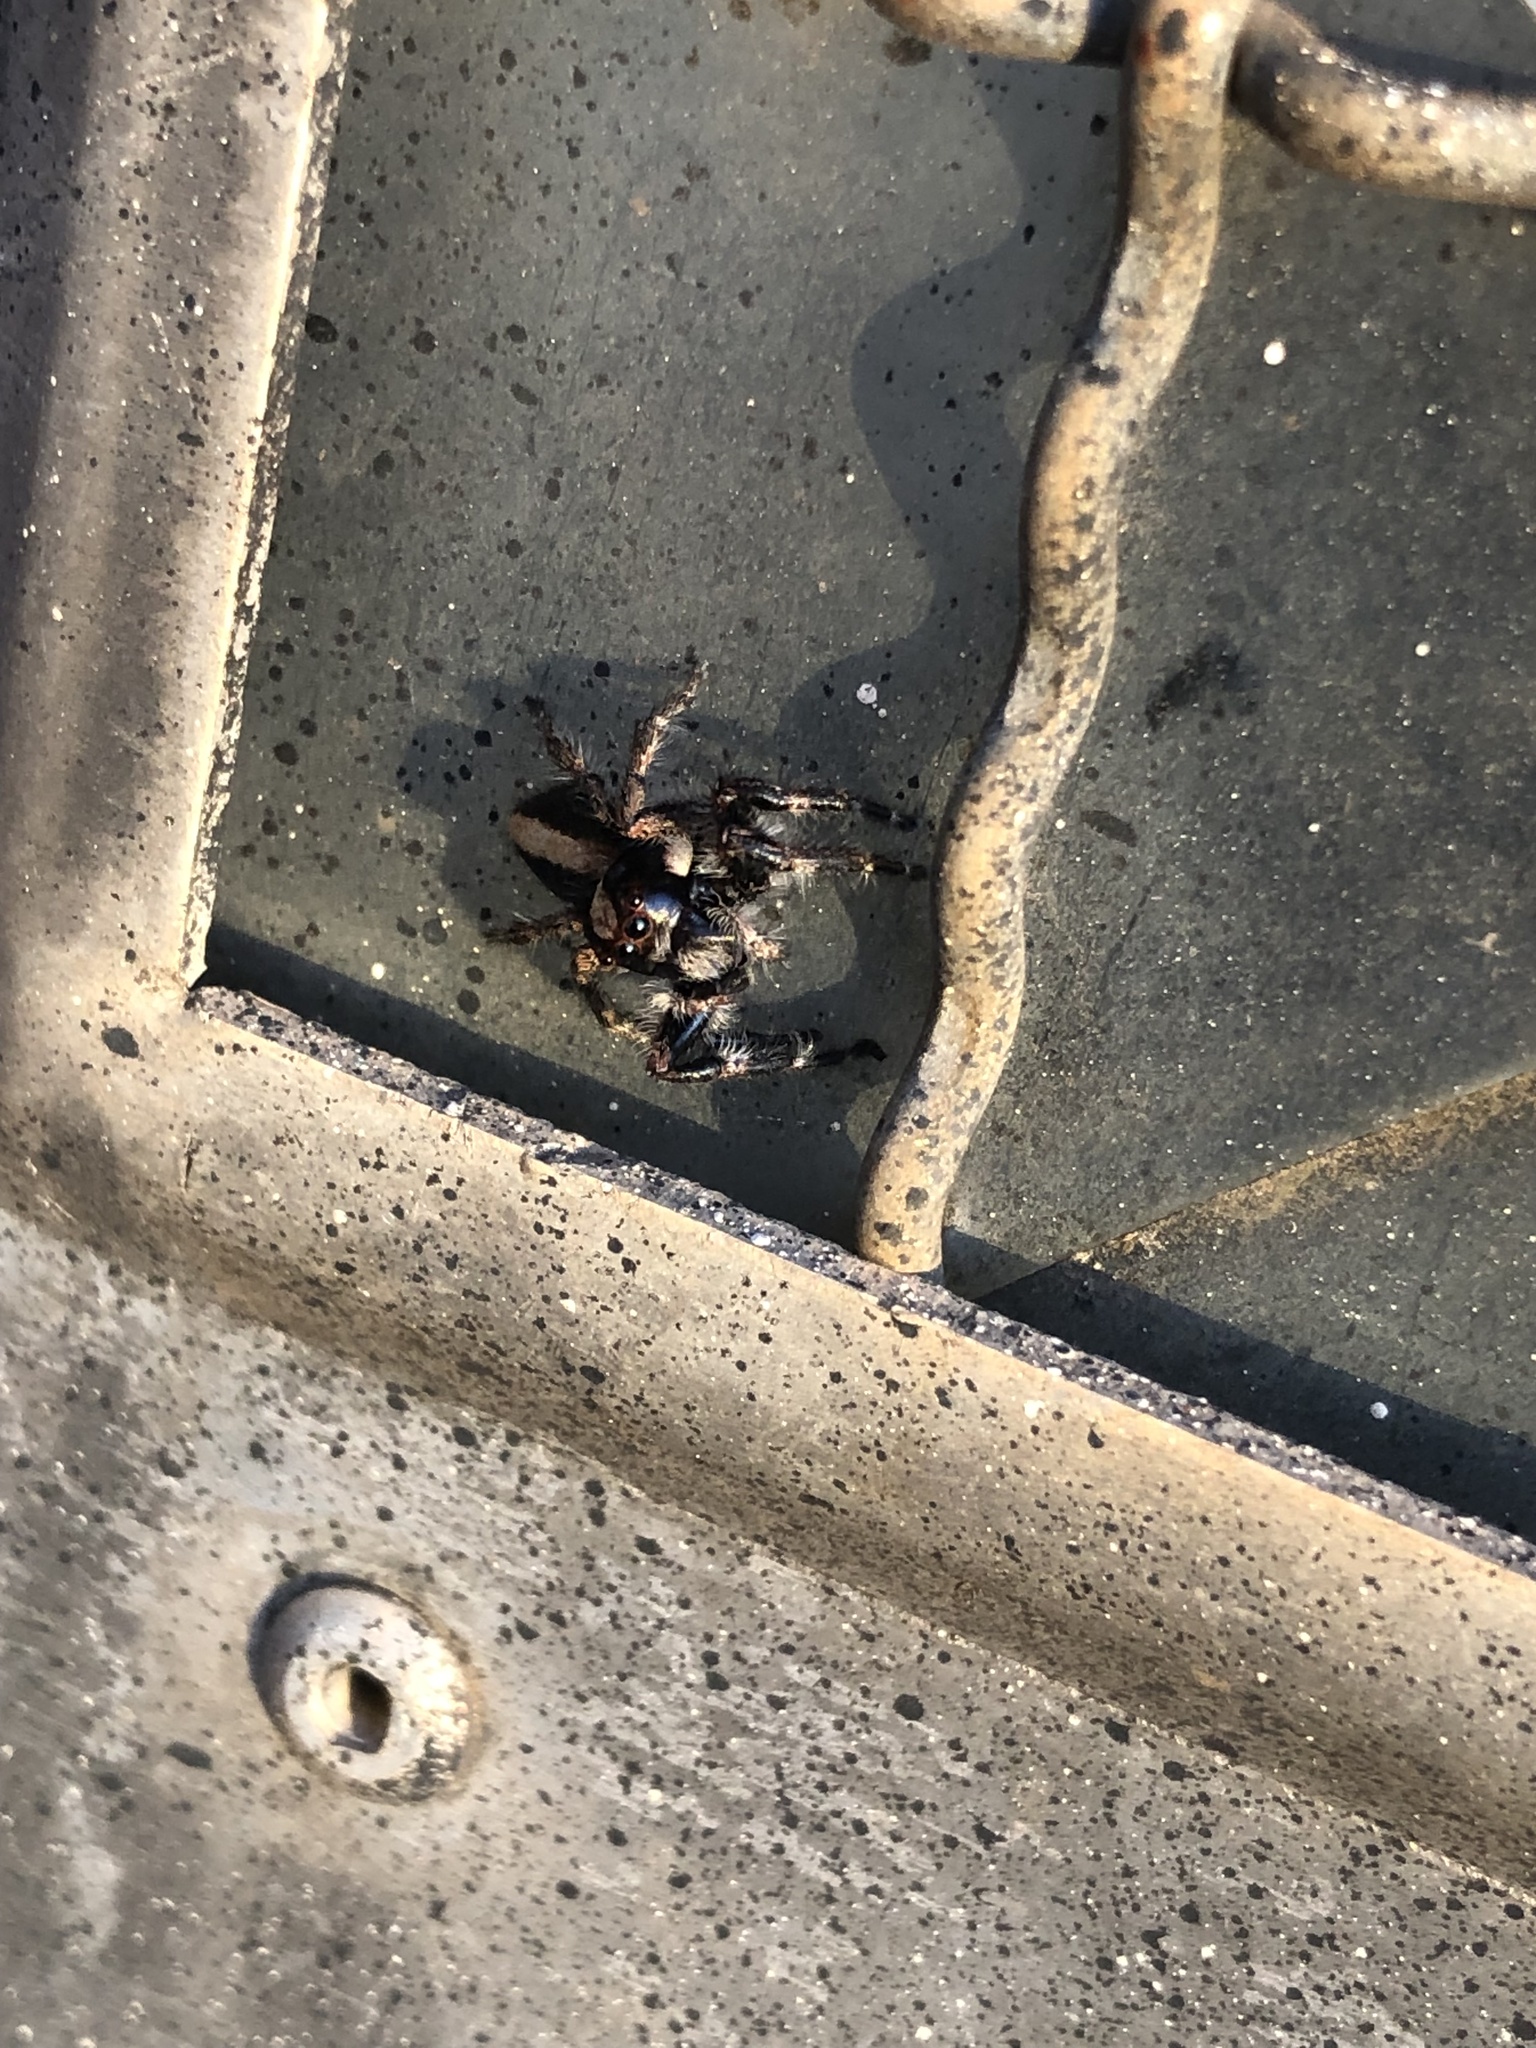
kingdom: Animalia
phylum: Arthropoda
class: Arachnida
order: Araneae
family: Salticidae
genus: Megafreya
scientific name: Megafreya sutrix
